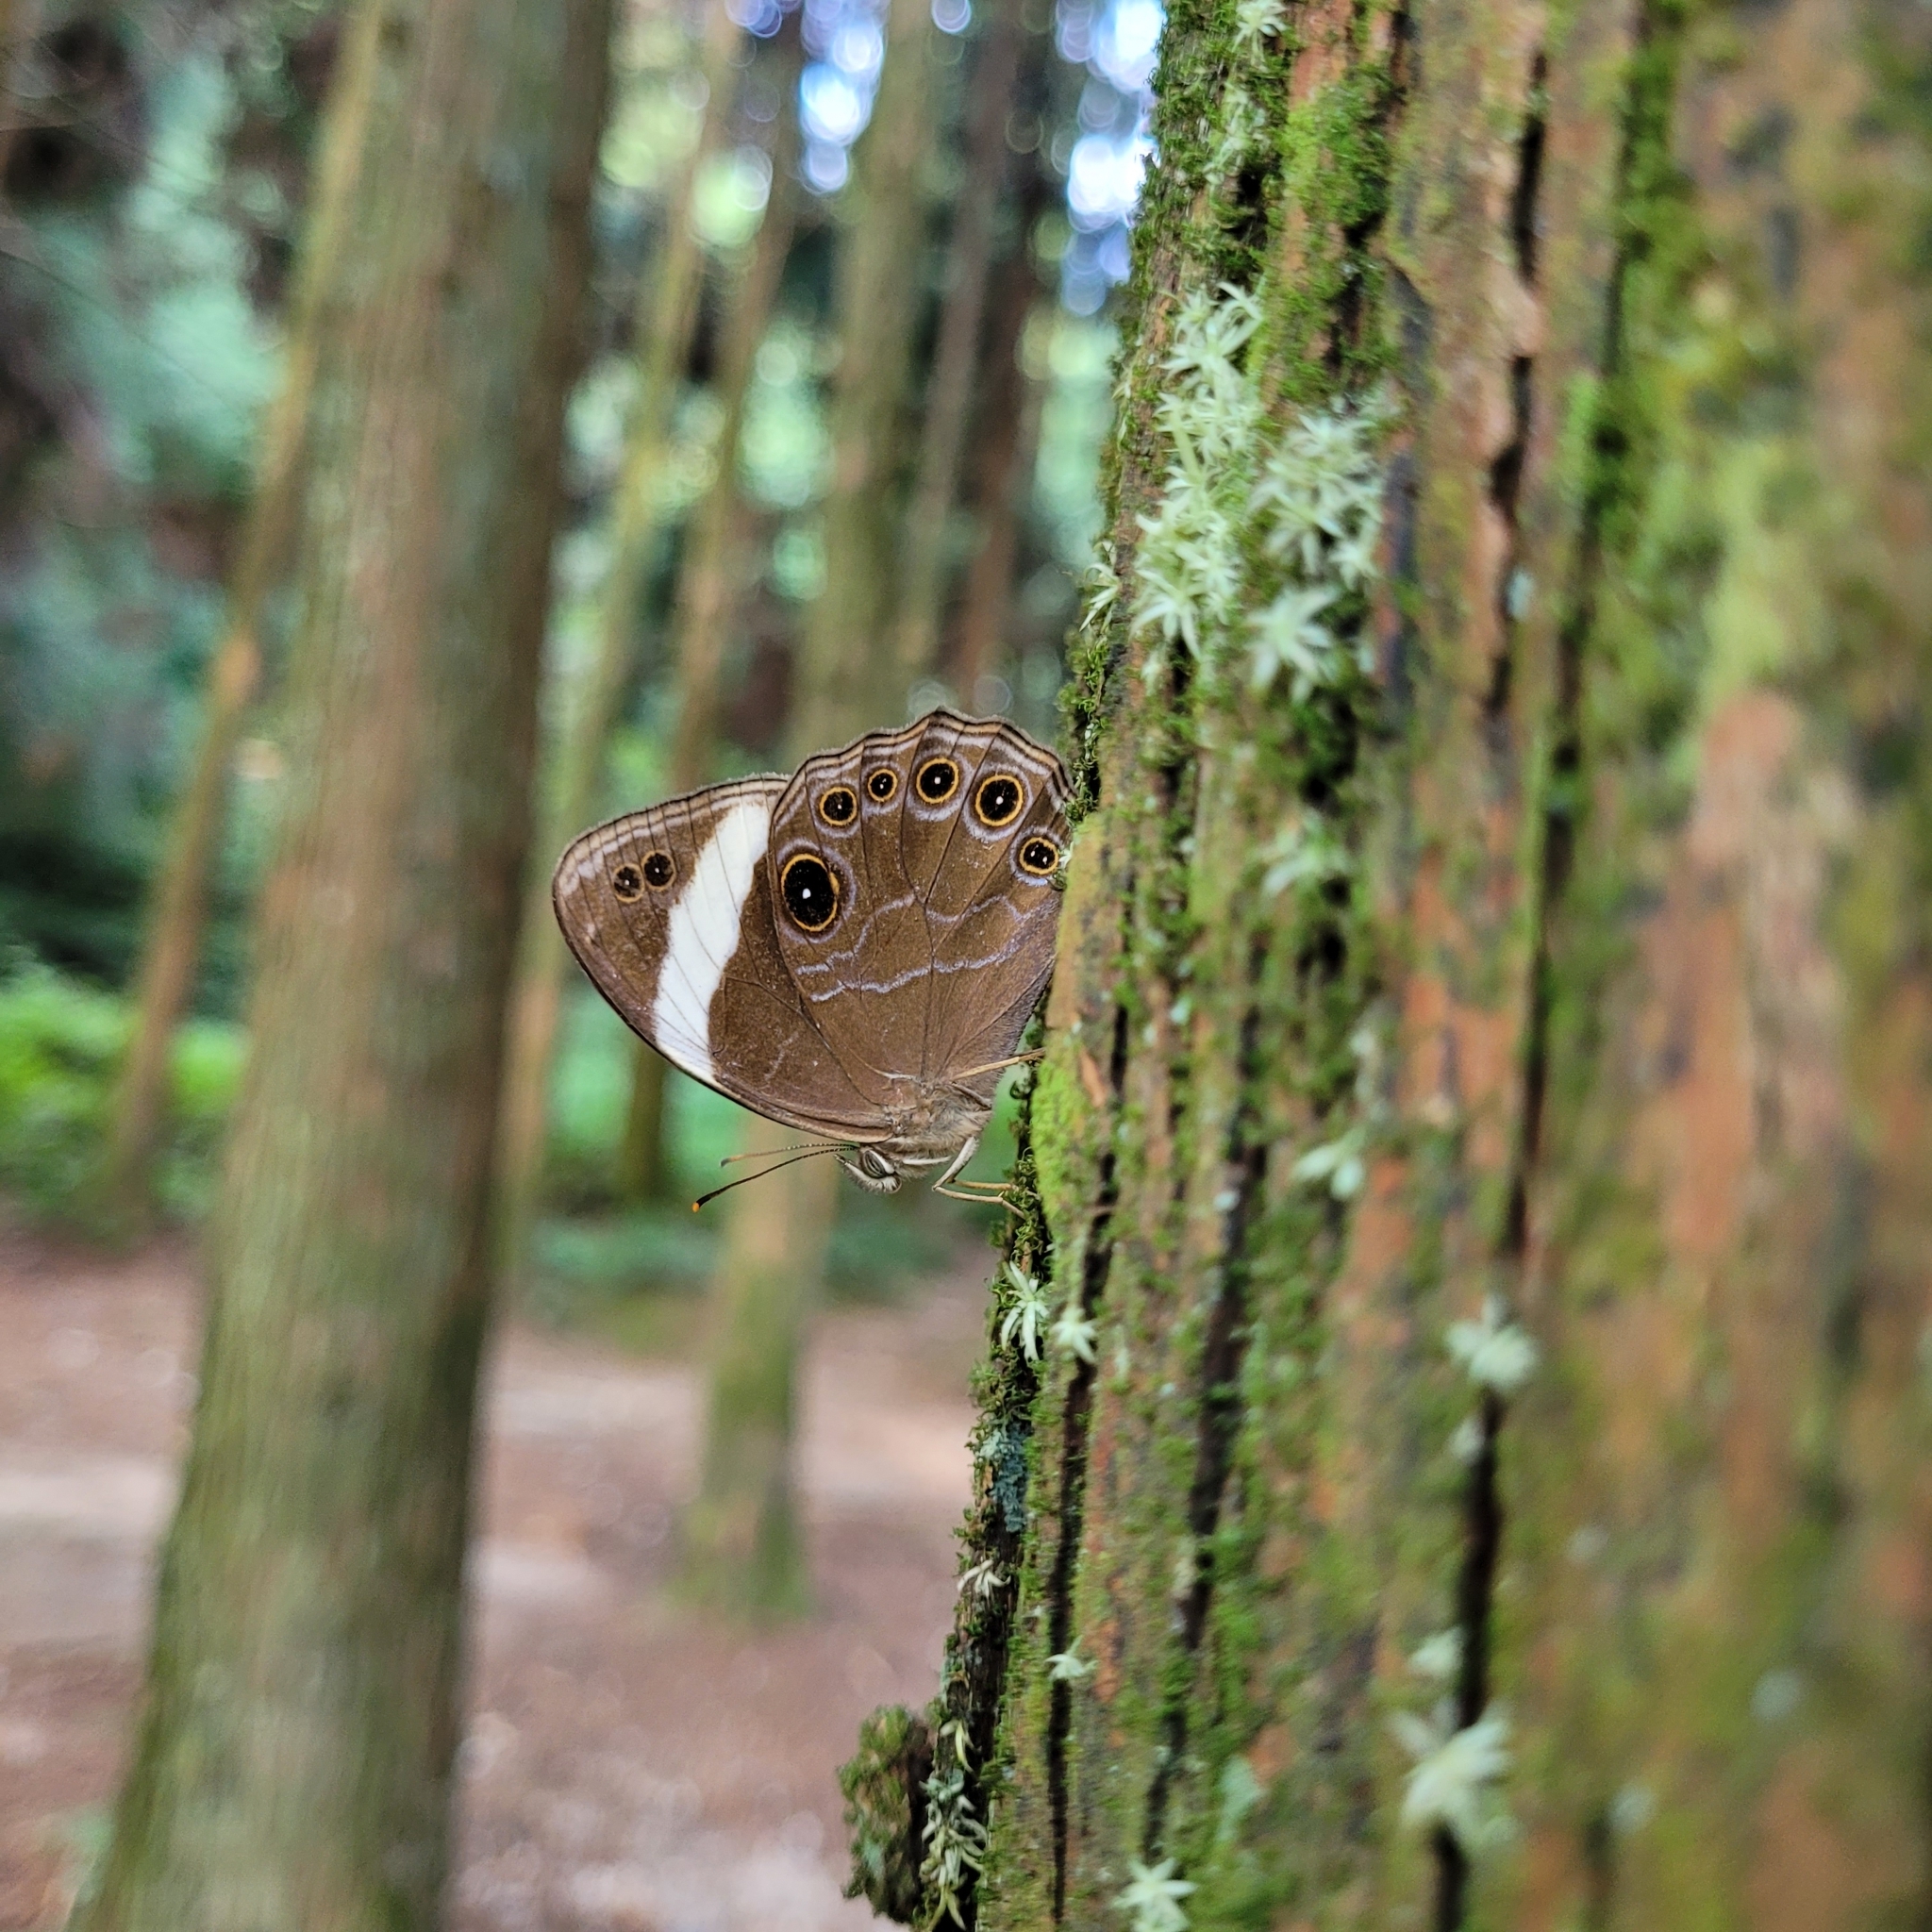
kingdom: Animalia
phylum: Arthropoda
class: Insecta
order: Lepidoptera
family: Nymphalidae
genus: Lethe
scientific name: Lethe verma
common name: Straight-banded treebrown
